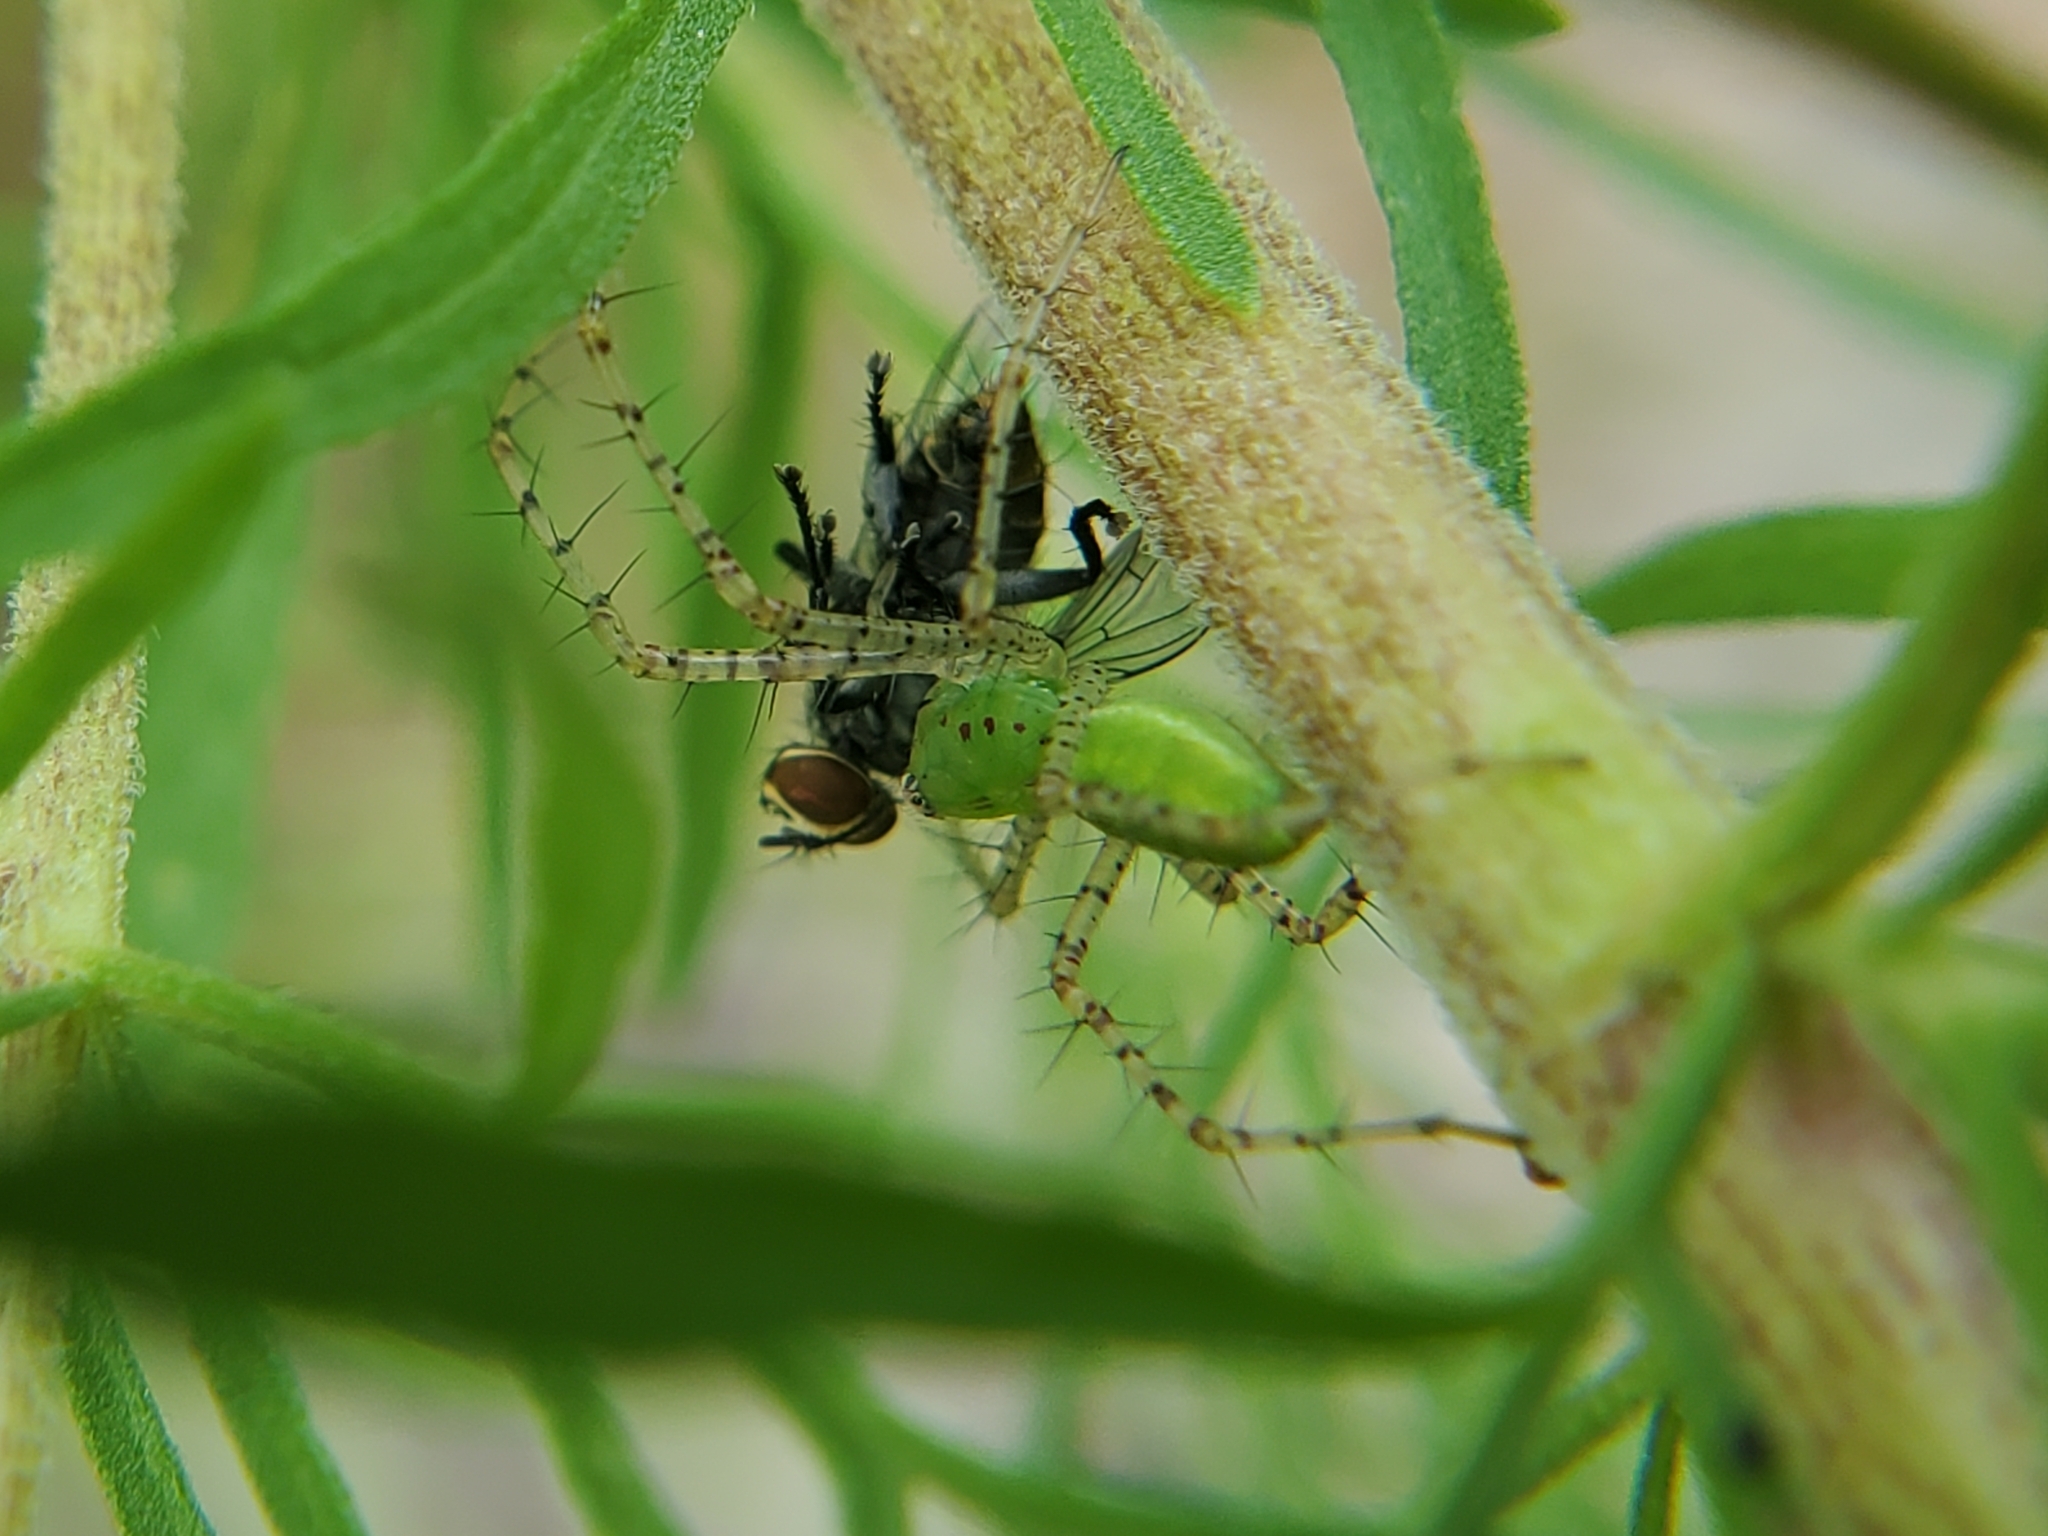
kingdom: Animalia
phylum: Arthropoda
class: Arachnida
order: Araneae
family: Oxyopidae
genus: Peucetia
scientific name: Peucetia viridans
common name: Lynx spiders
